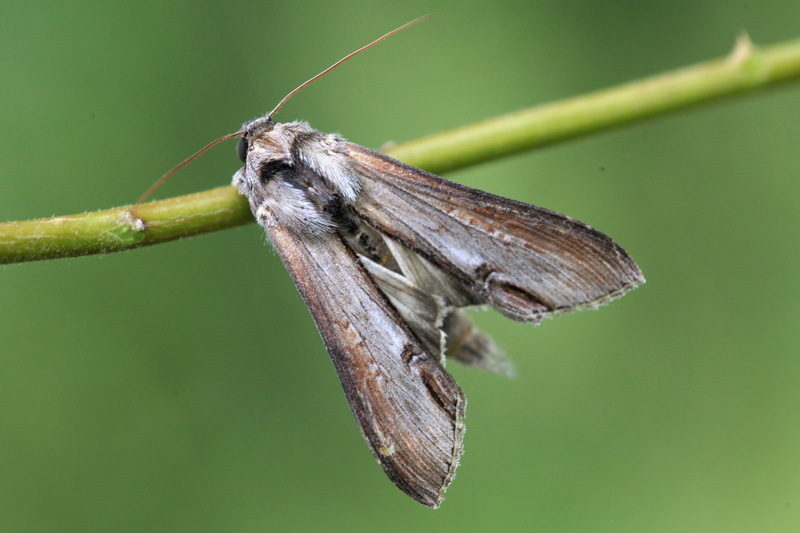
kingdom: Animalia
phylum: Arthropoda
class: Insecta
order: Lepidoptera
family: Noctuidae
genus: Cucullia
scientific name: Cucullia asteris
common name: Star-wort
